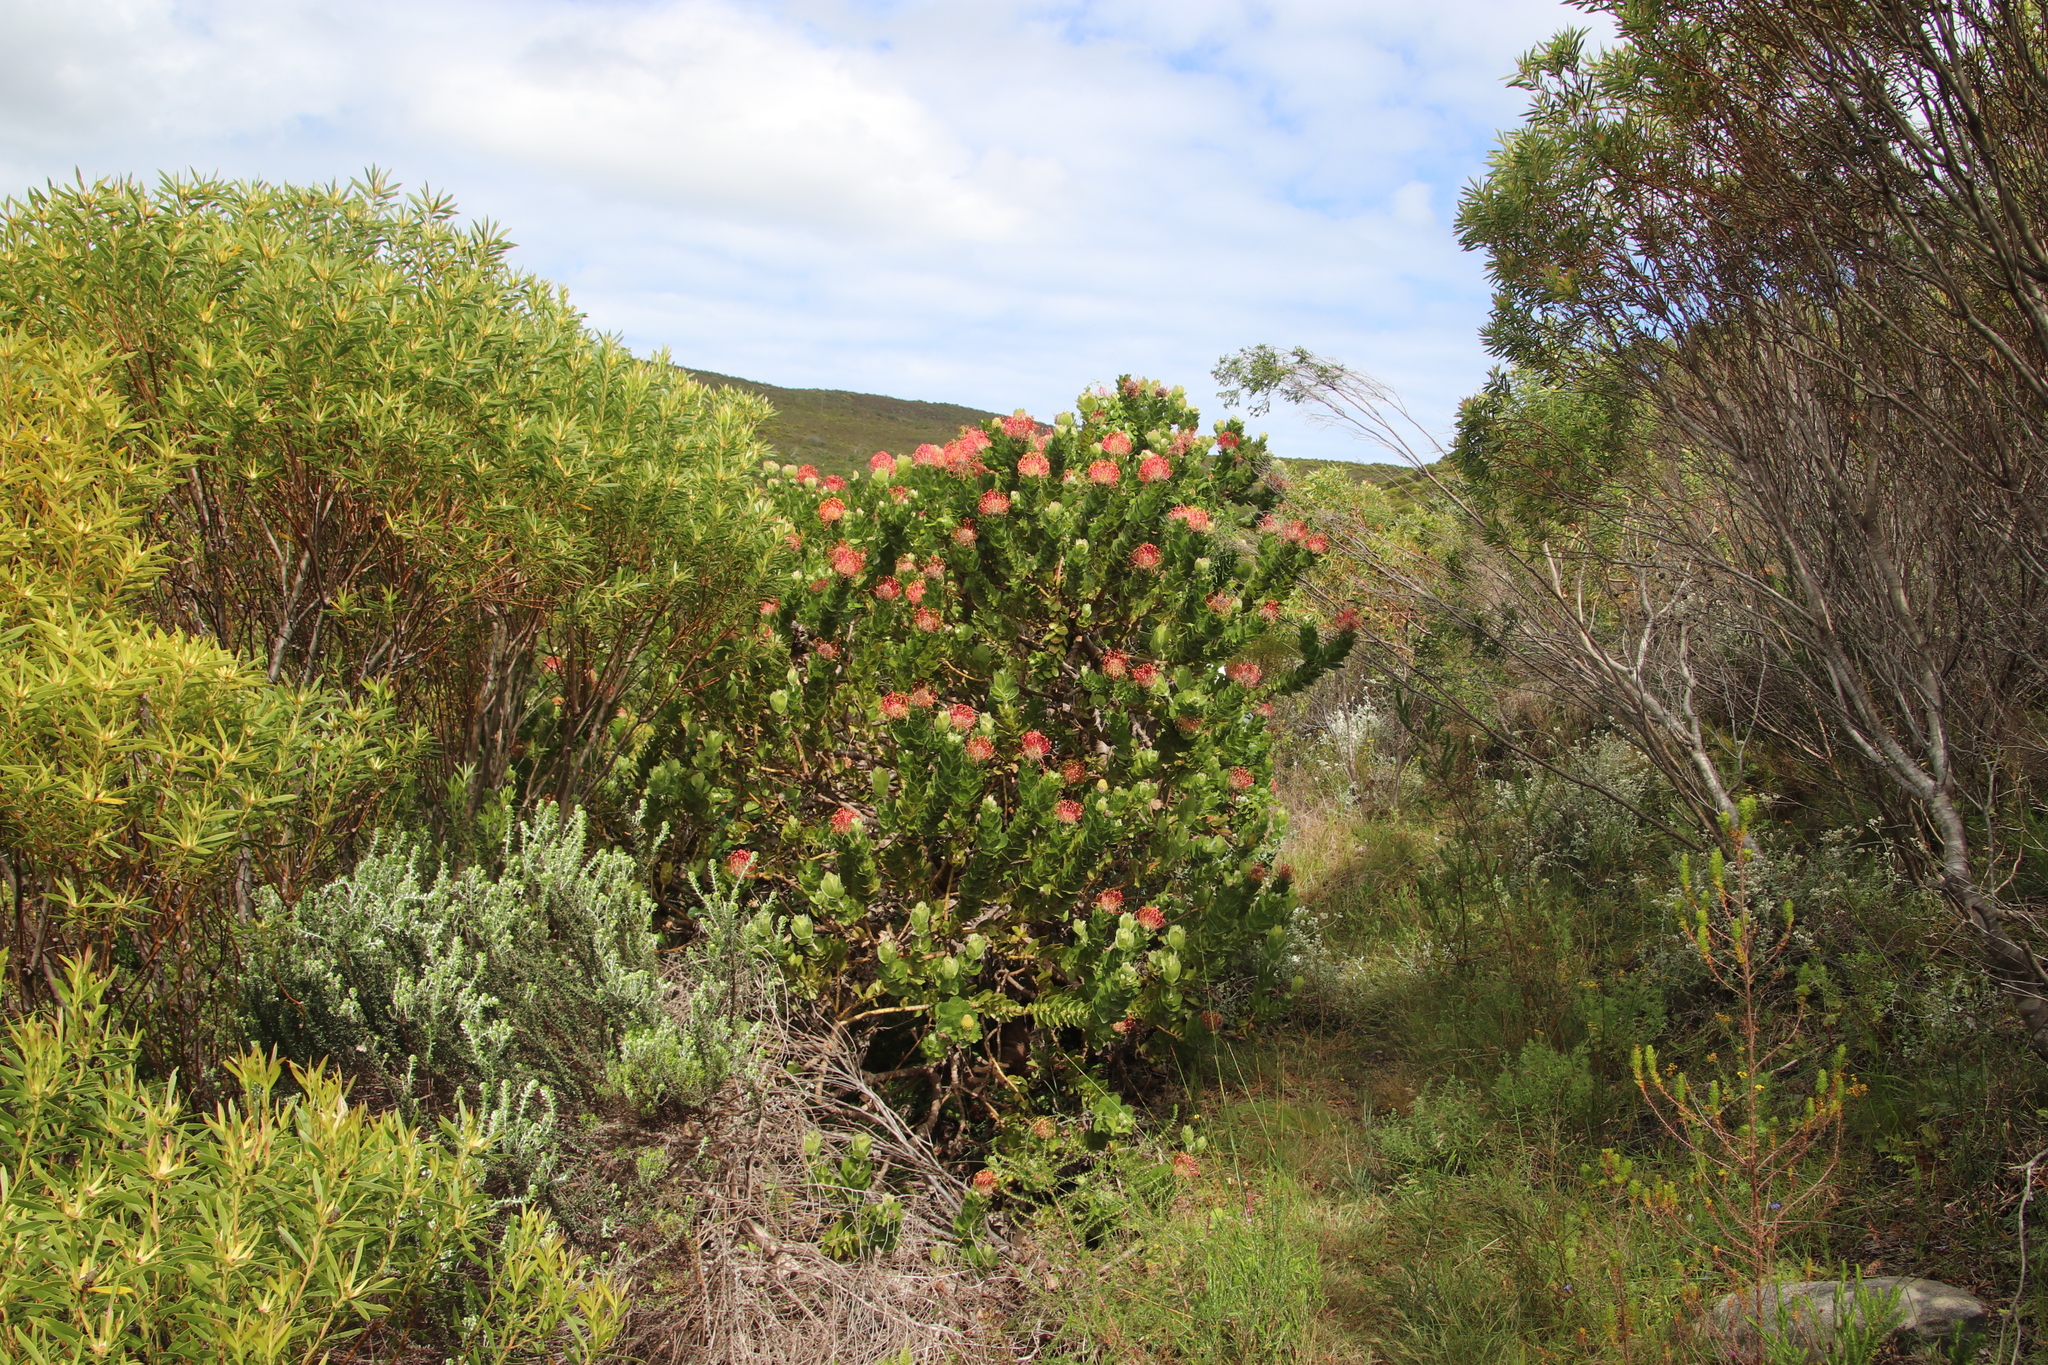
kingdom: Plantae
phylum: Tracheophyta
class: Magnoliopsida
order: Proteales
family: Proteaceae
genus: Leucospermum
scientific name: Leucospermum patersonii
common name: False tree pincushion
